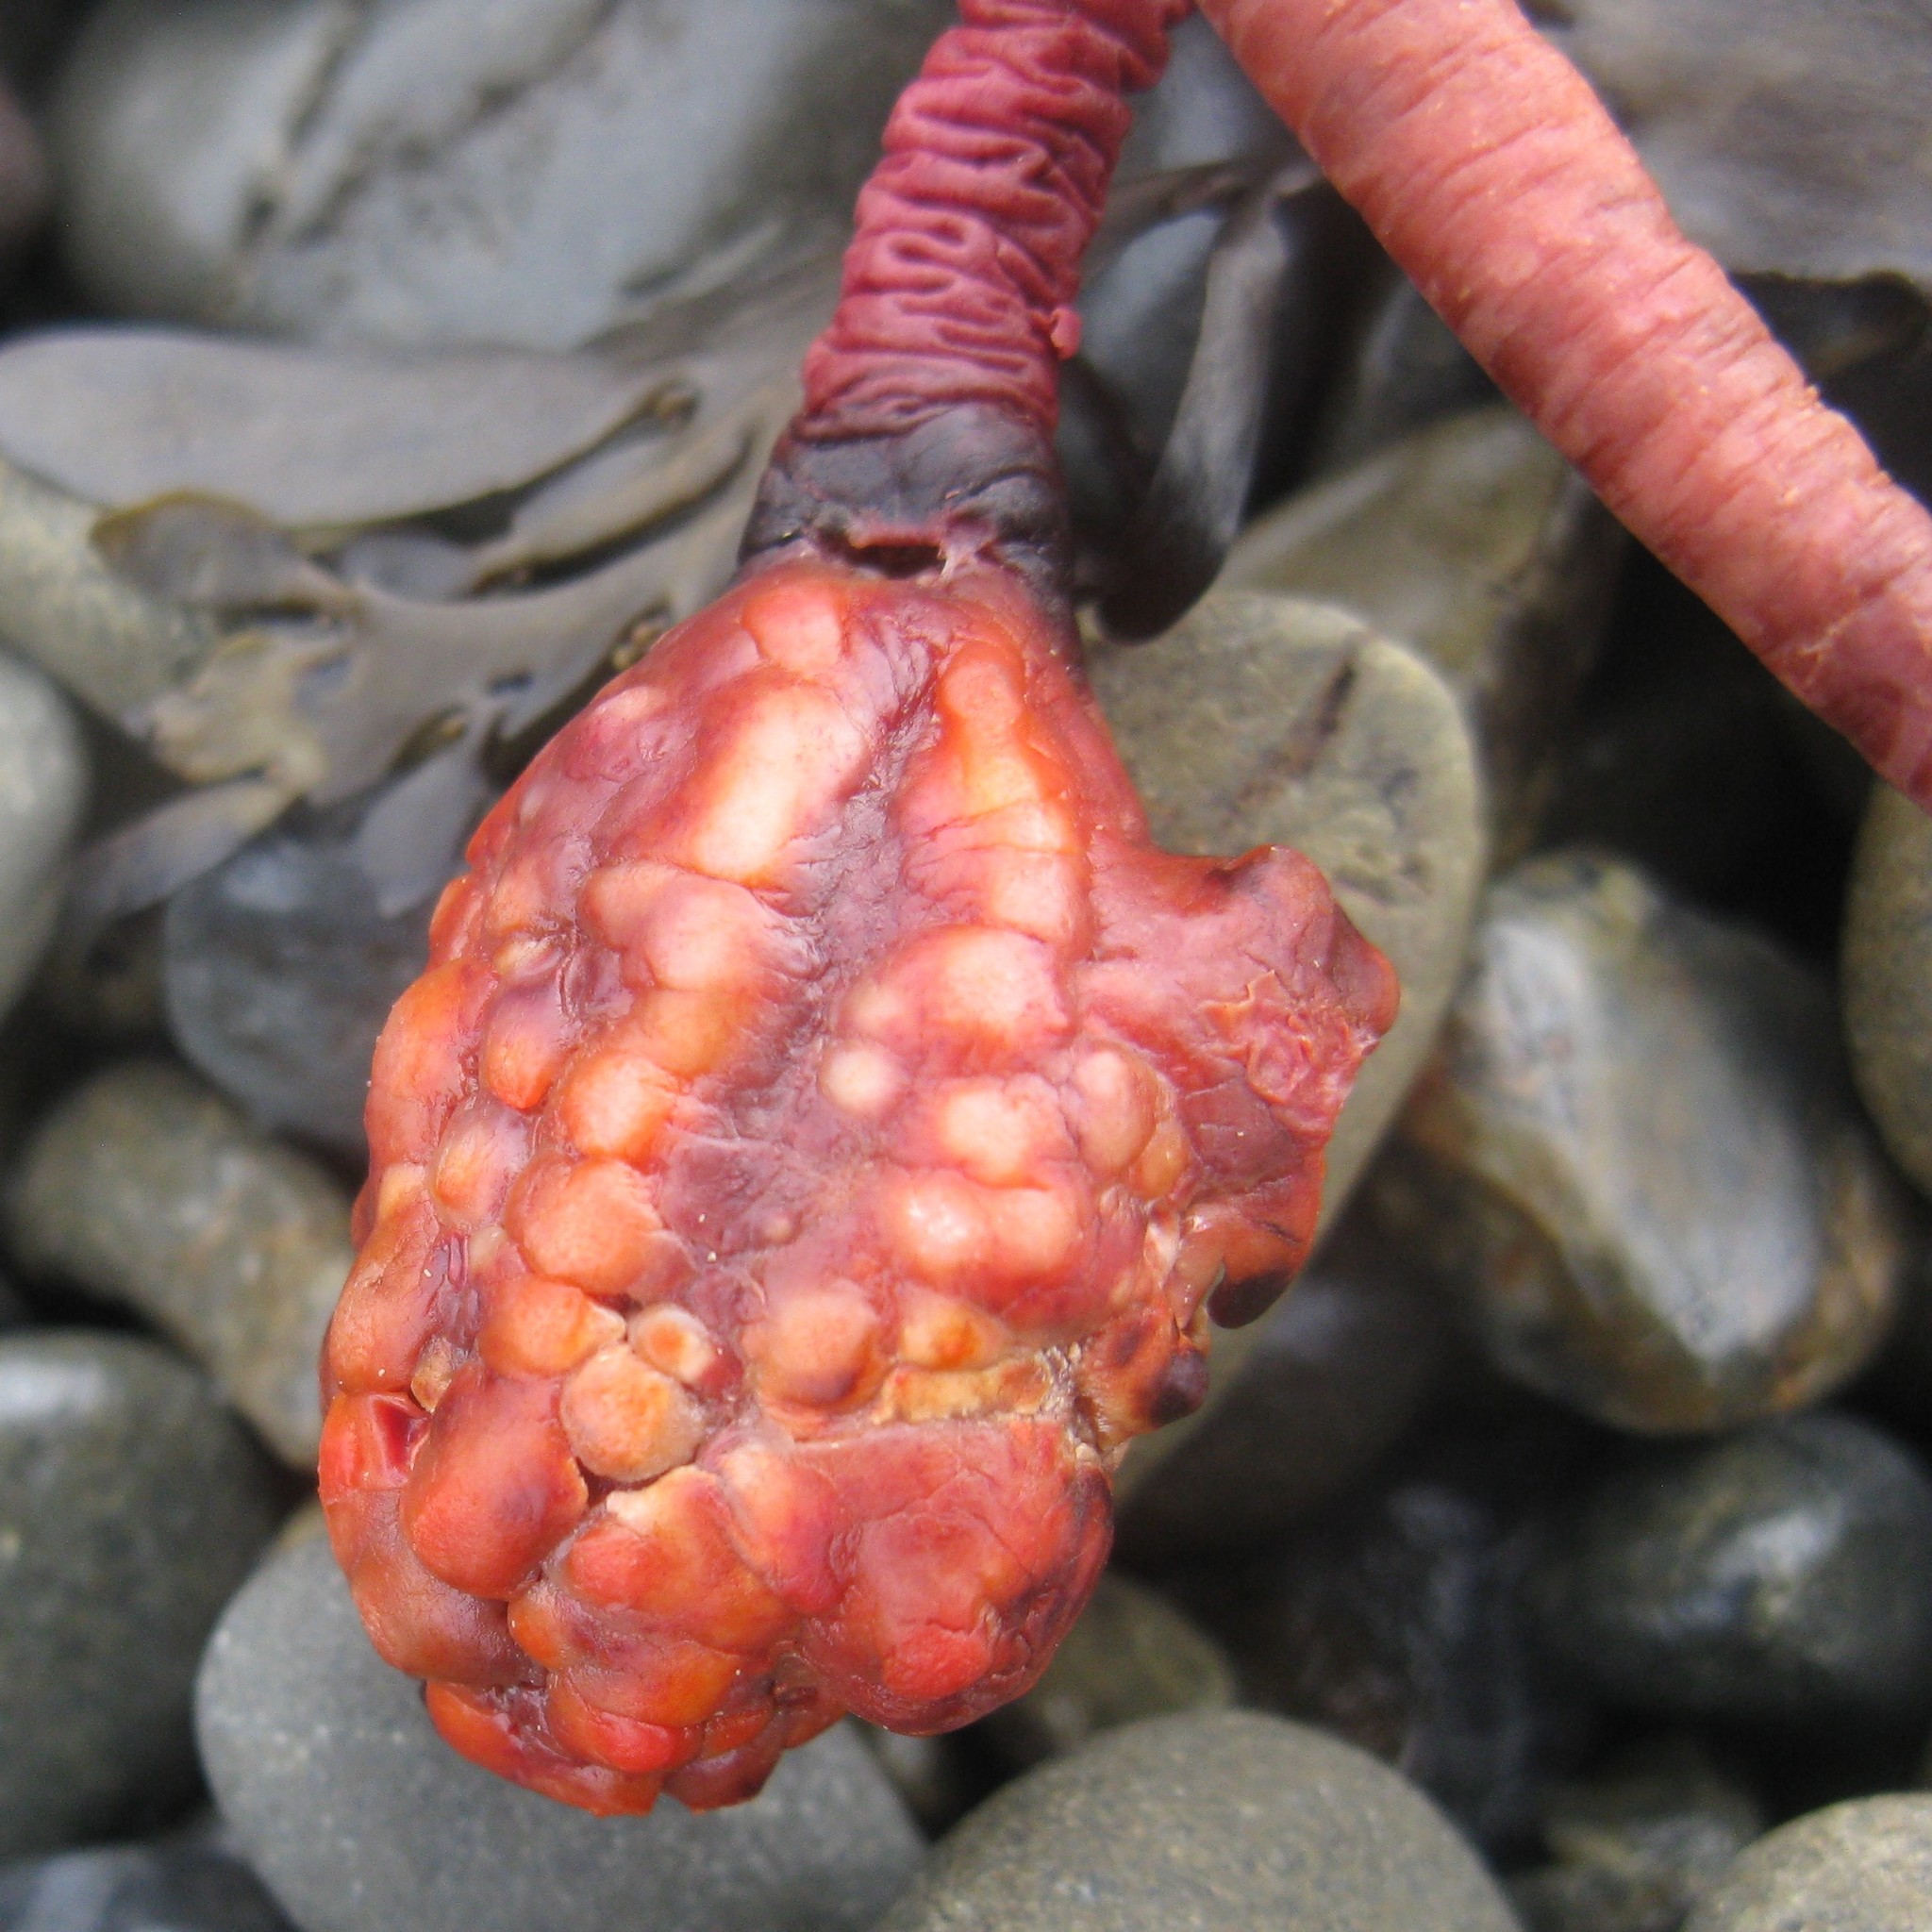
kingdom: Animalia
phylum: Chordata
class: Ascidiacea
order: Stolidobranchia
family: Pyuridae
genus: Pyura
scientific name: Pyura pachydermatina
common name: Sea tulip
